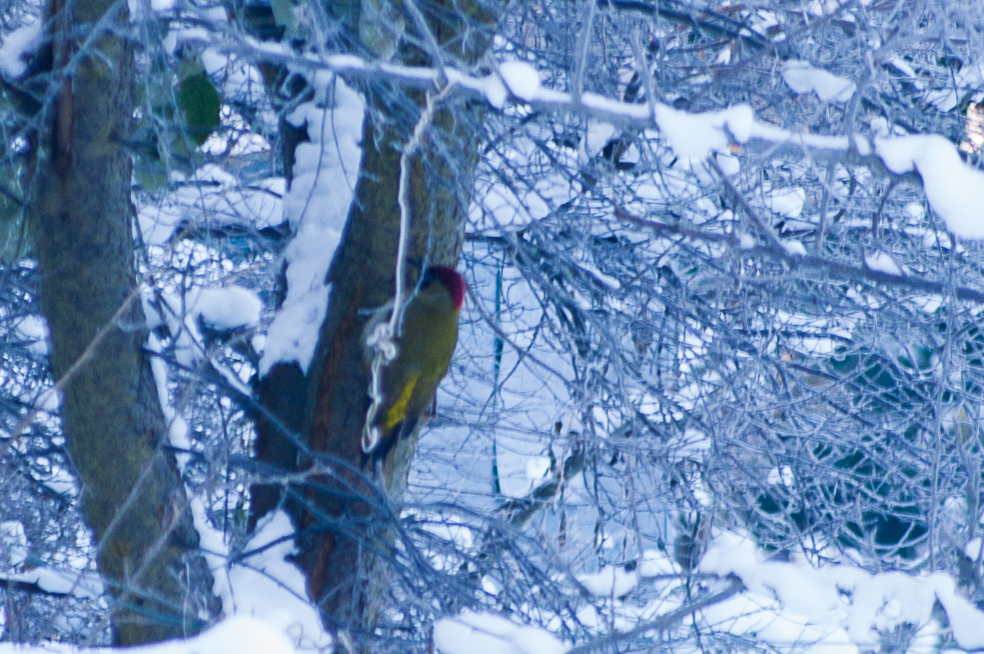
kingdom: Animalia
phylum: Chordata
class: Aves
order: Piciformes
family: Picidae
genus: Picus
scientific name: Picus viridis
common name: European green woodpecker
